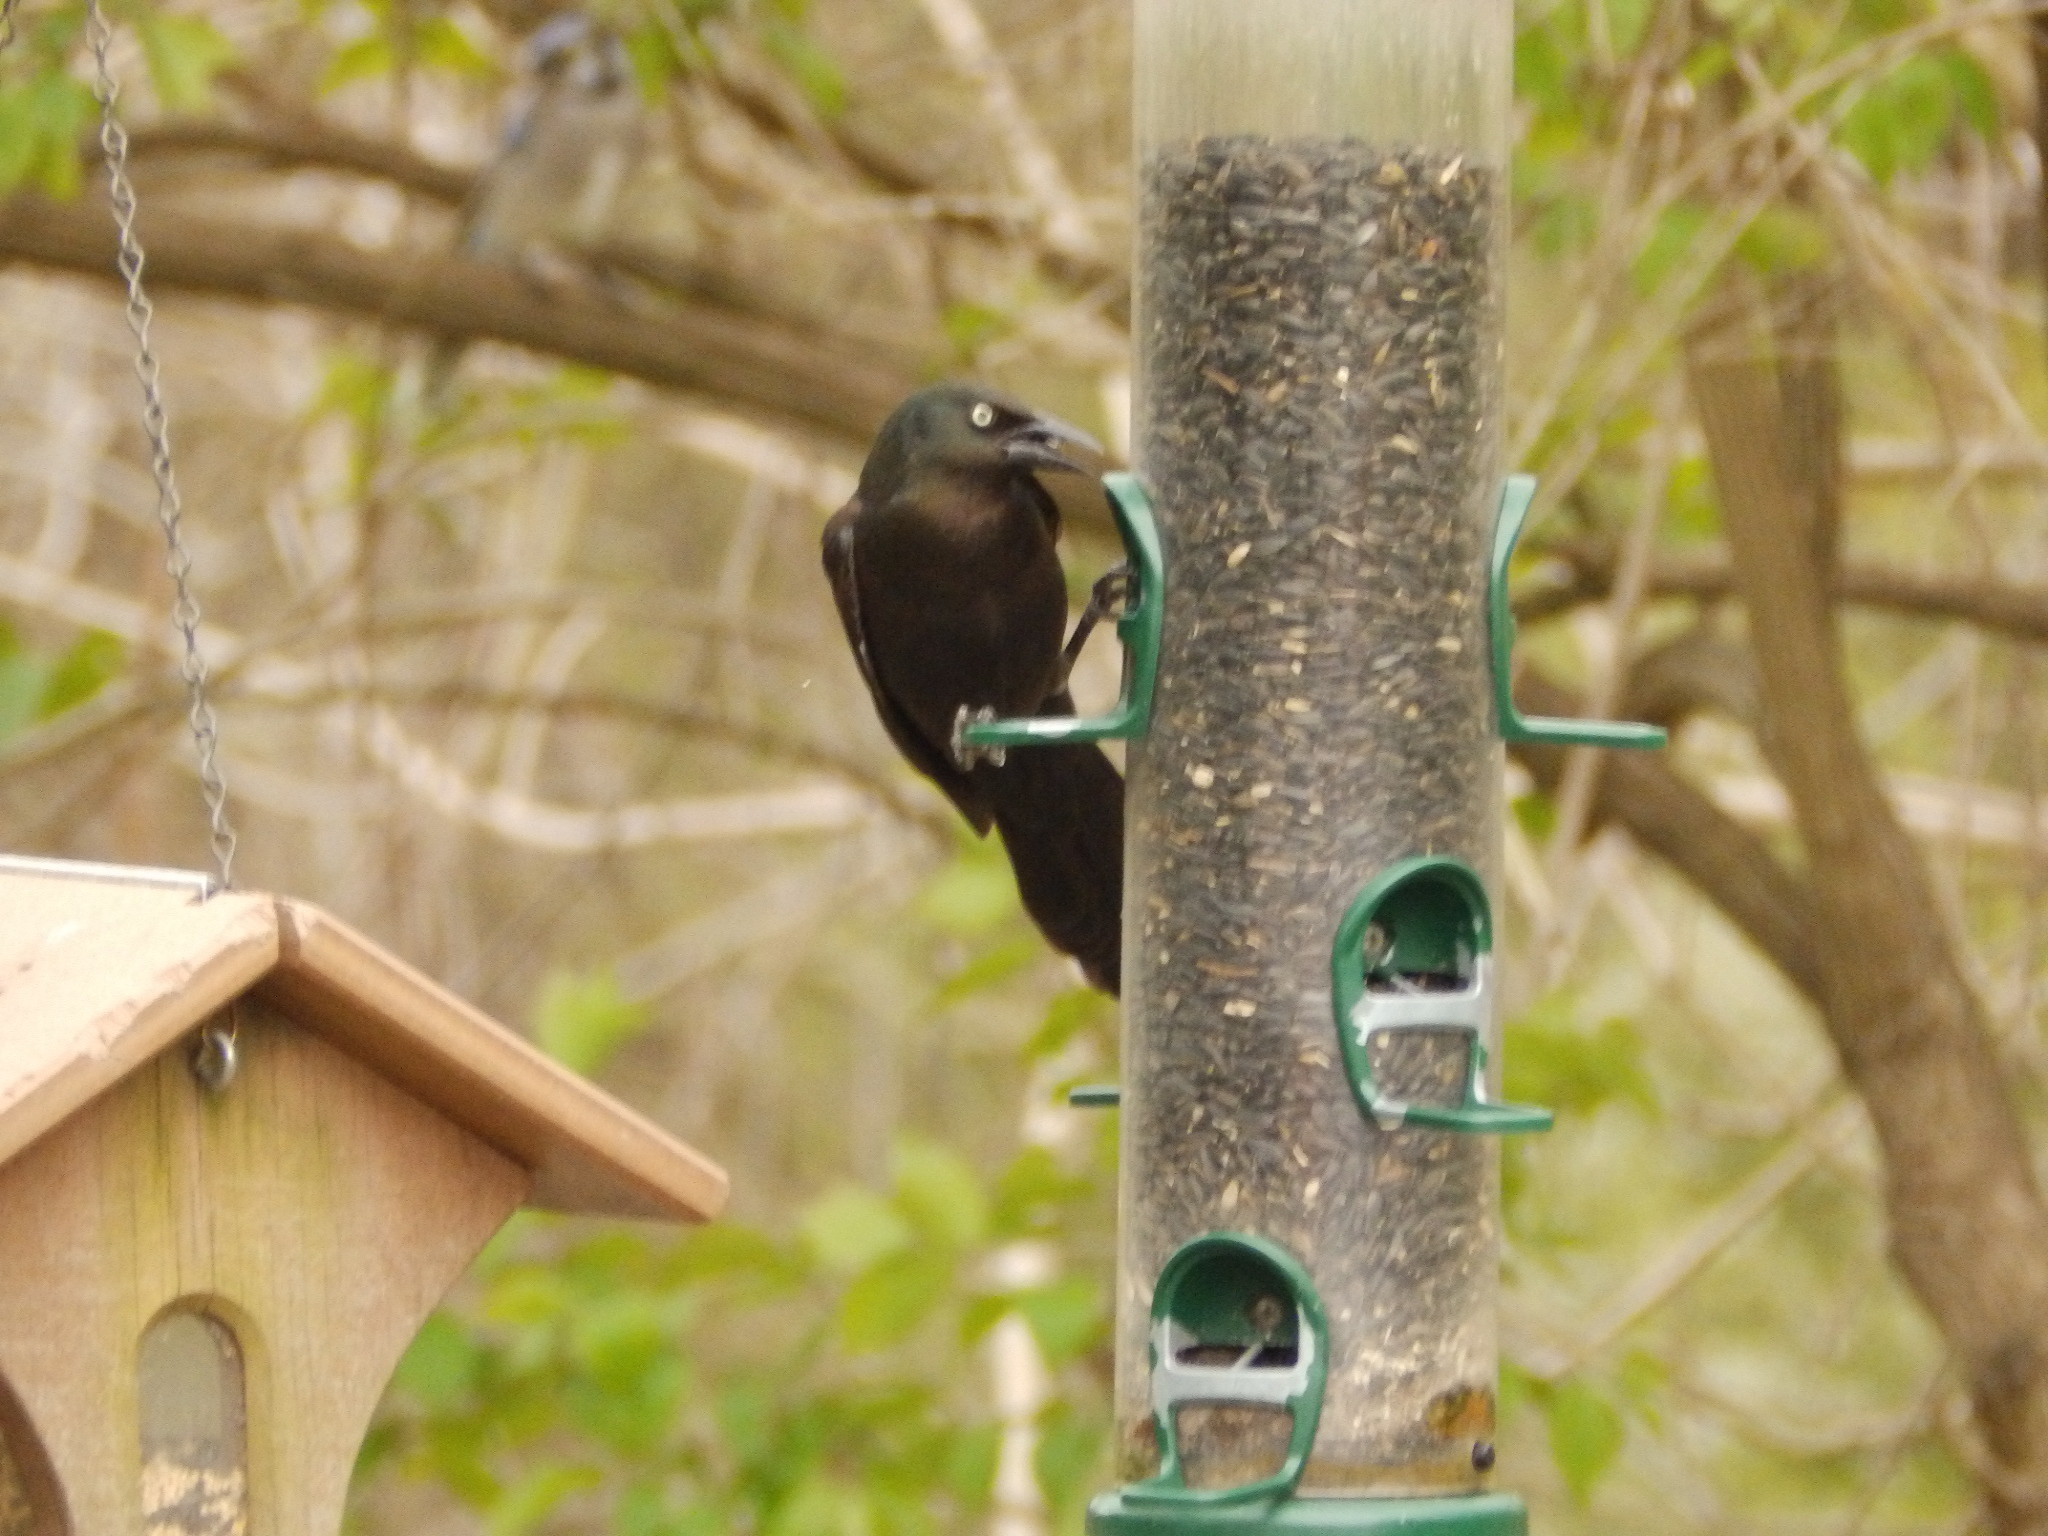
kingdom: Animalia
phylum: Chordata
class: Aves
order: Passeriformes
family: Icteridae
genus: Quiscalus
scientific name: Quiscalus quiscula
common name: Common grackle
